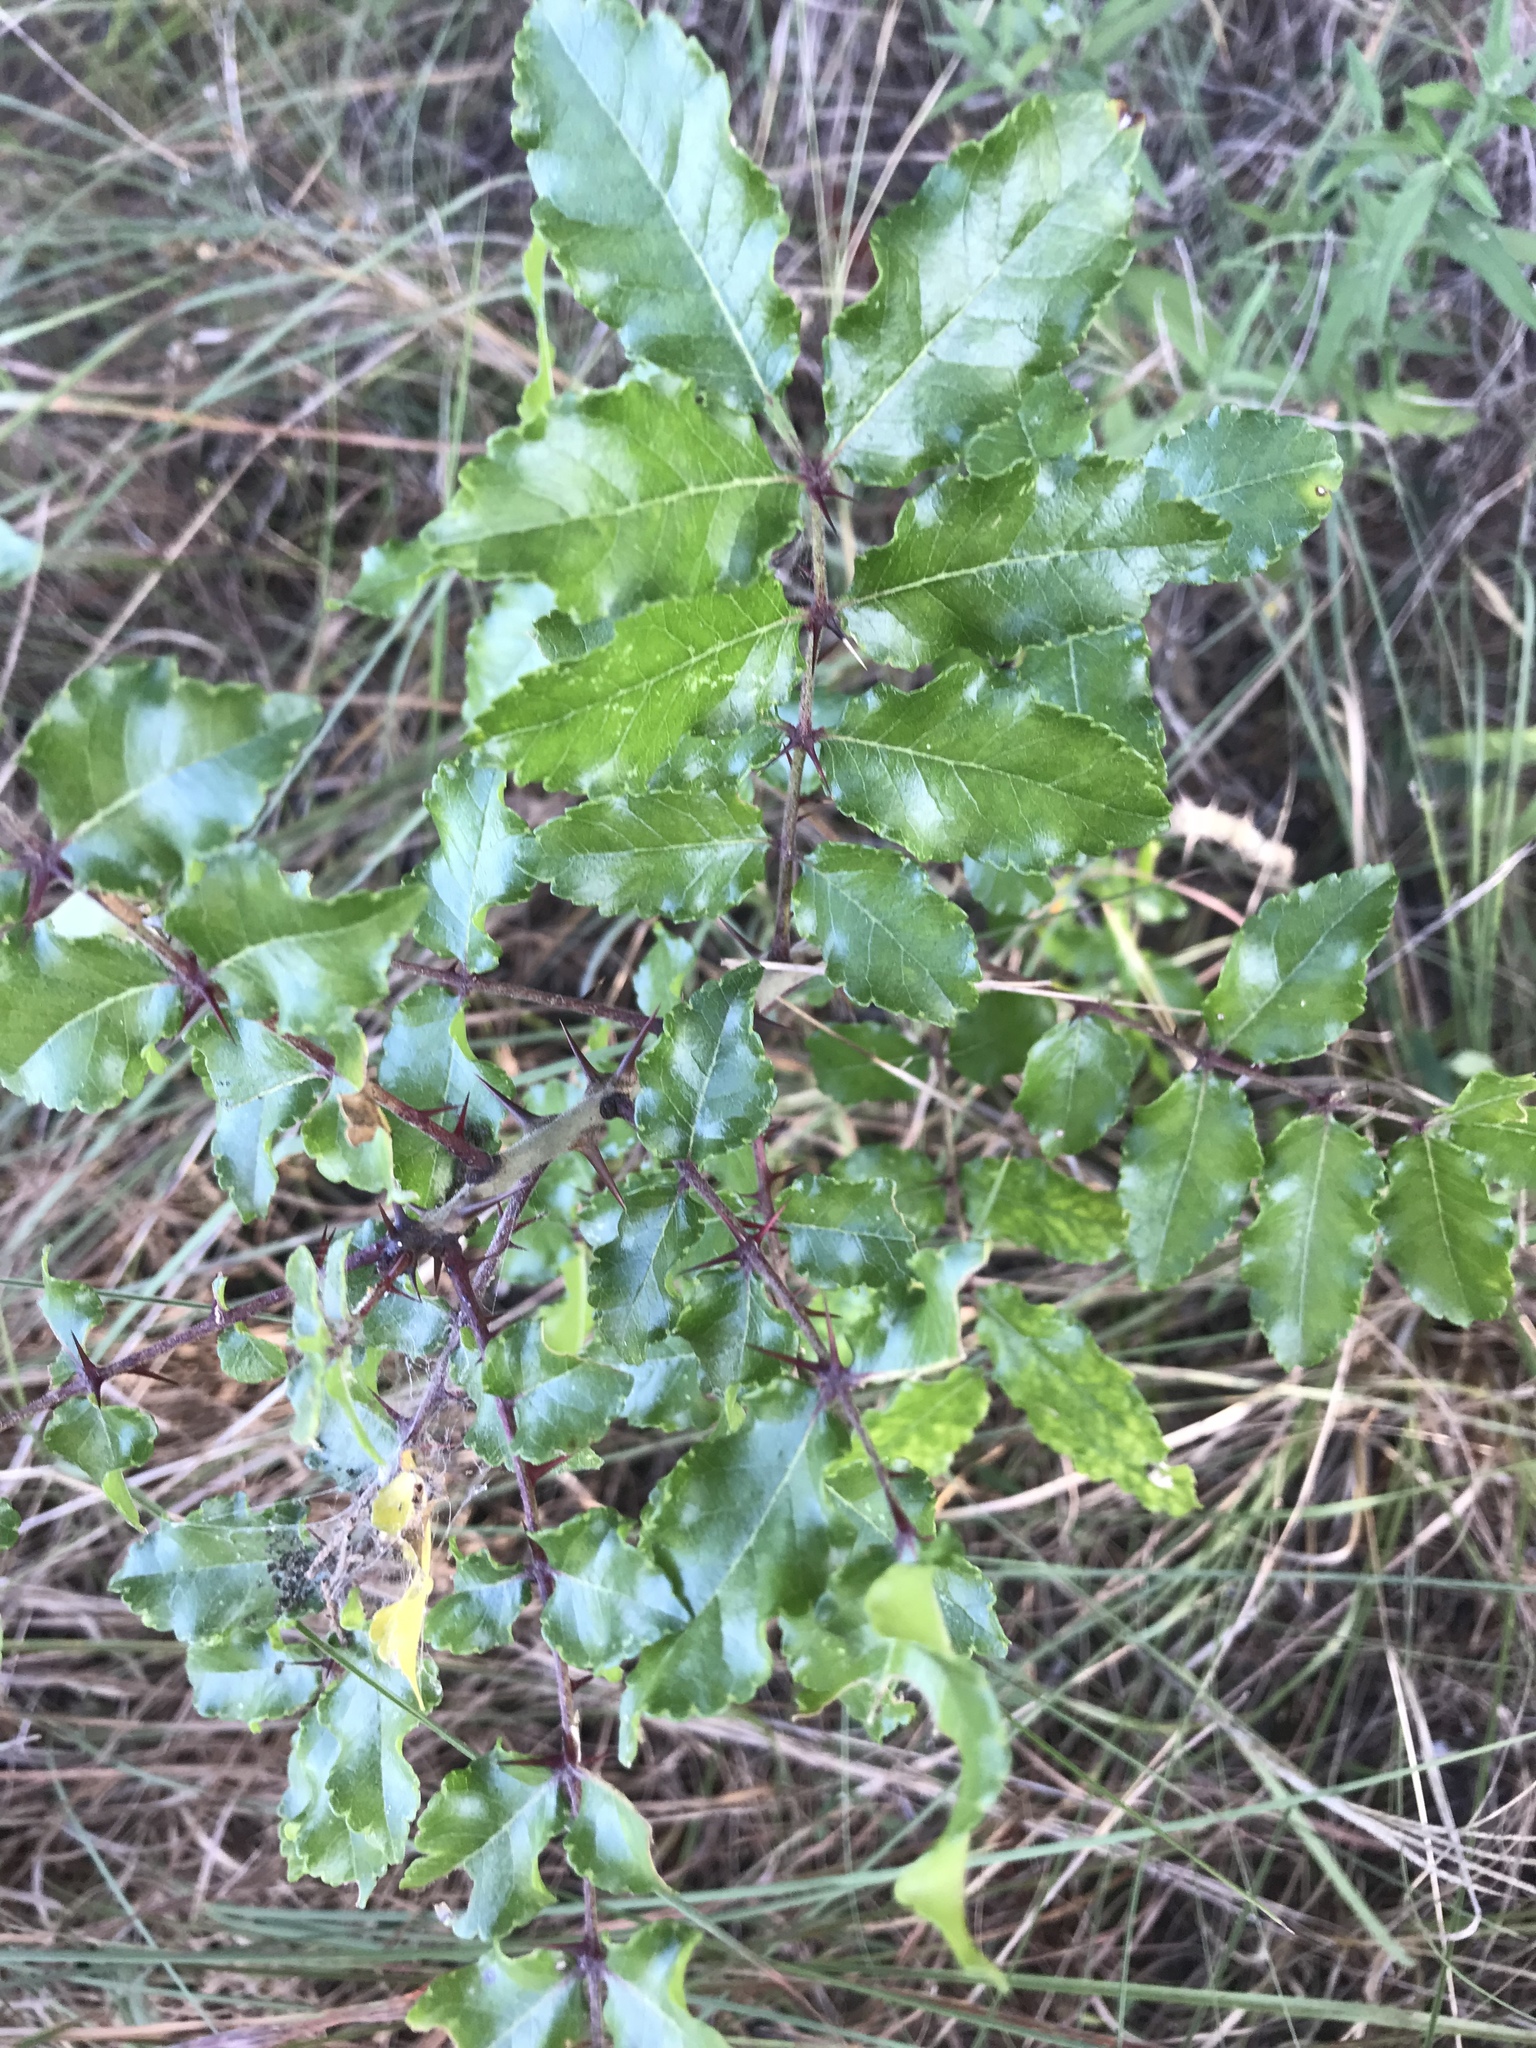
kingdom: Plantae
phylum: Tracheophyta
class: Magnoliopsida
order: Sapindales
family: Rutaceae
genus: Zanthoxylum
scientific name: Zanthoxylum clava-herculis
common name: Hercules'-club
